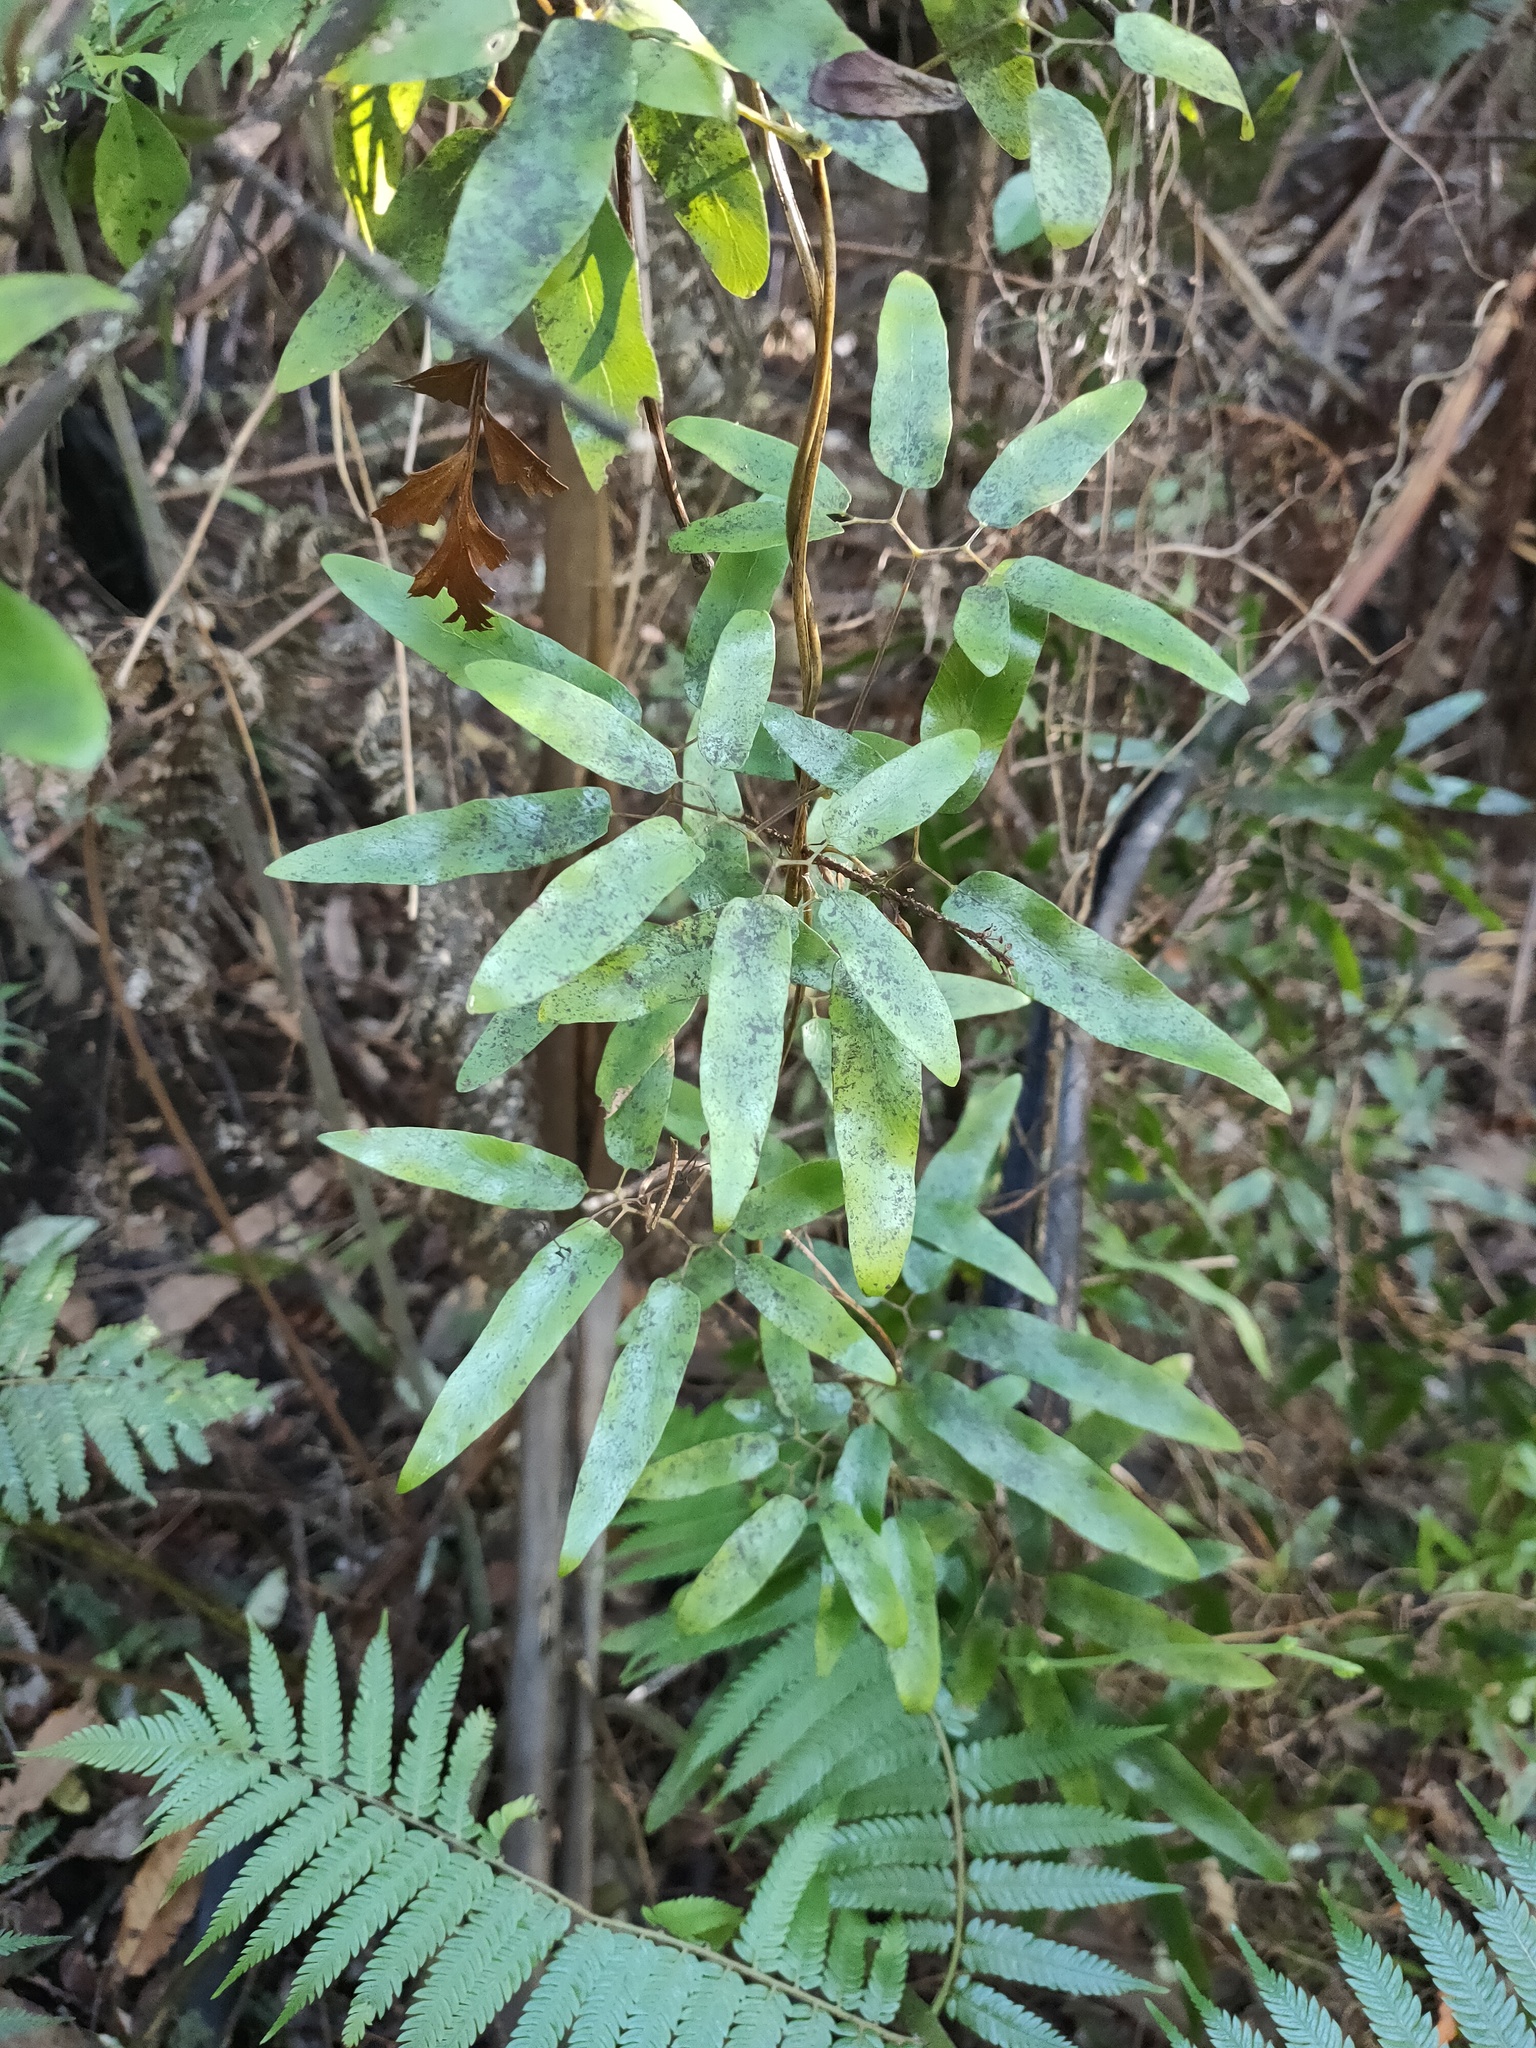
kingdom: Plantae
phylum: Tracheophyta
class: Polypodiopsida
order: Schizaeales
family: Lygodiaceae
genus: Lygodium
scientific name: Lygodium articulatum
